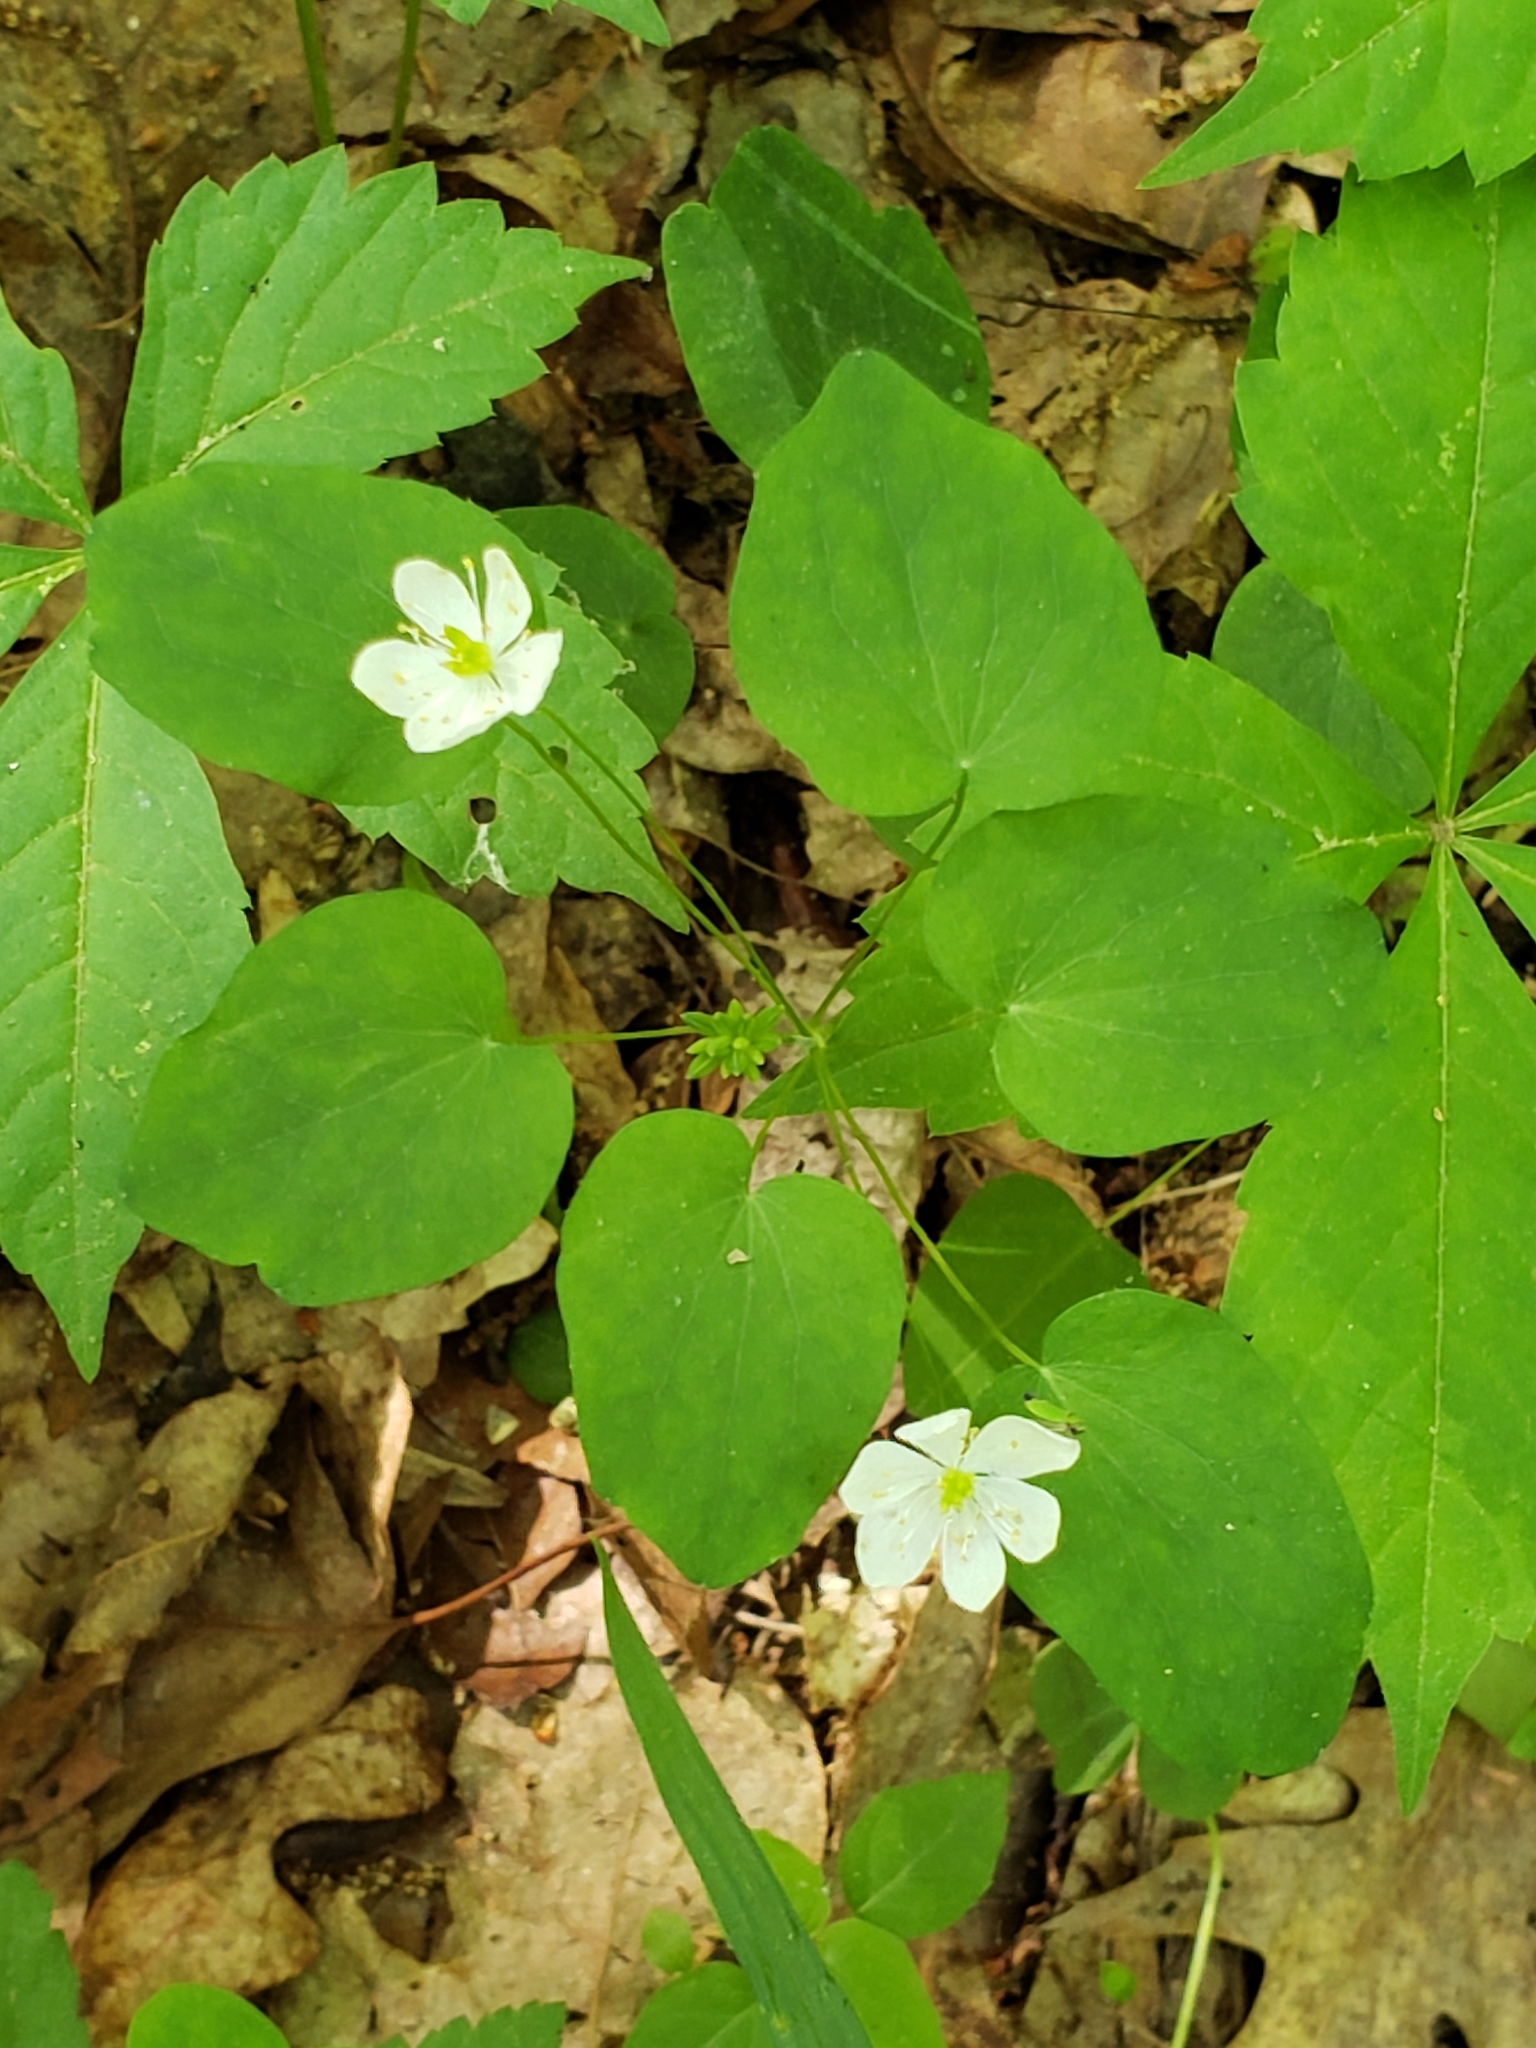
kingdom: Plantae
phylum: Tracheophyta
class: Magnoliopsida
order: Ranunculales
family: Ranunculaceae
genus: Thalictrum
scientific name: Thalictrum thalictroides
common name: Rue-anemone
